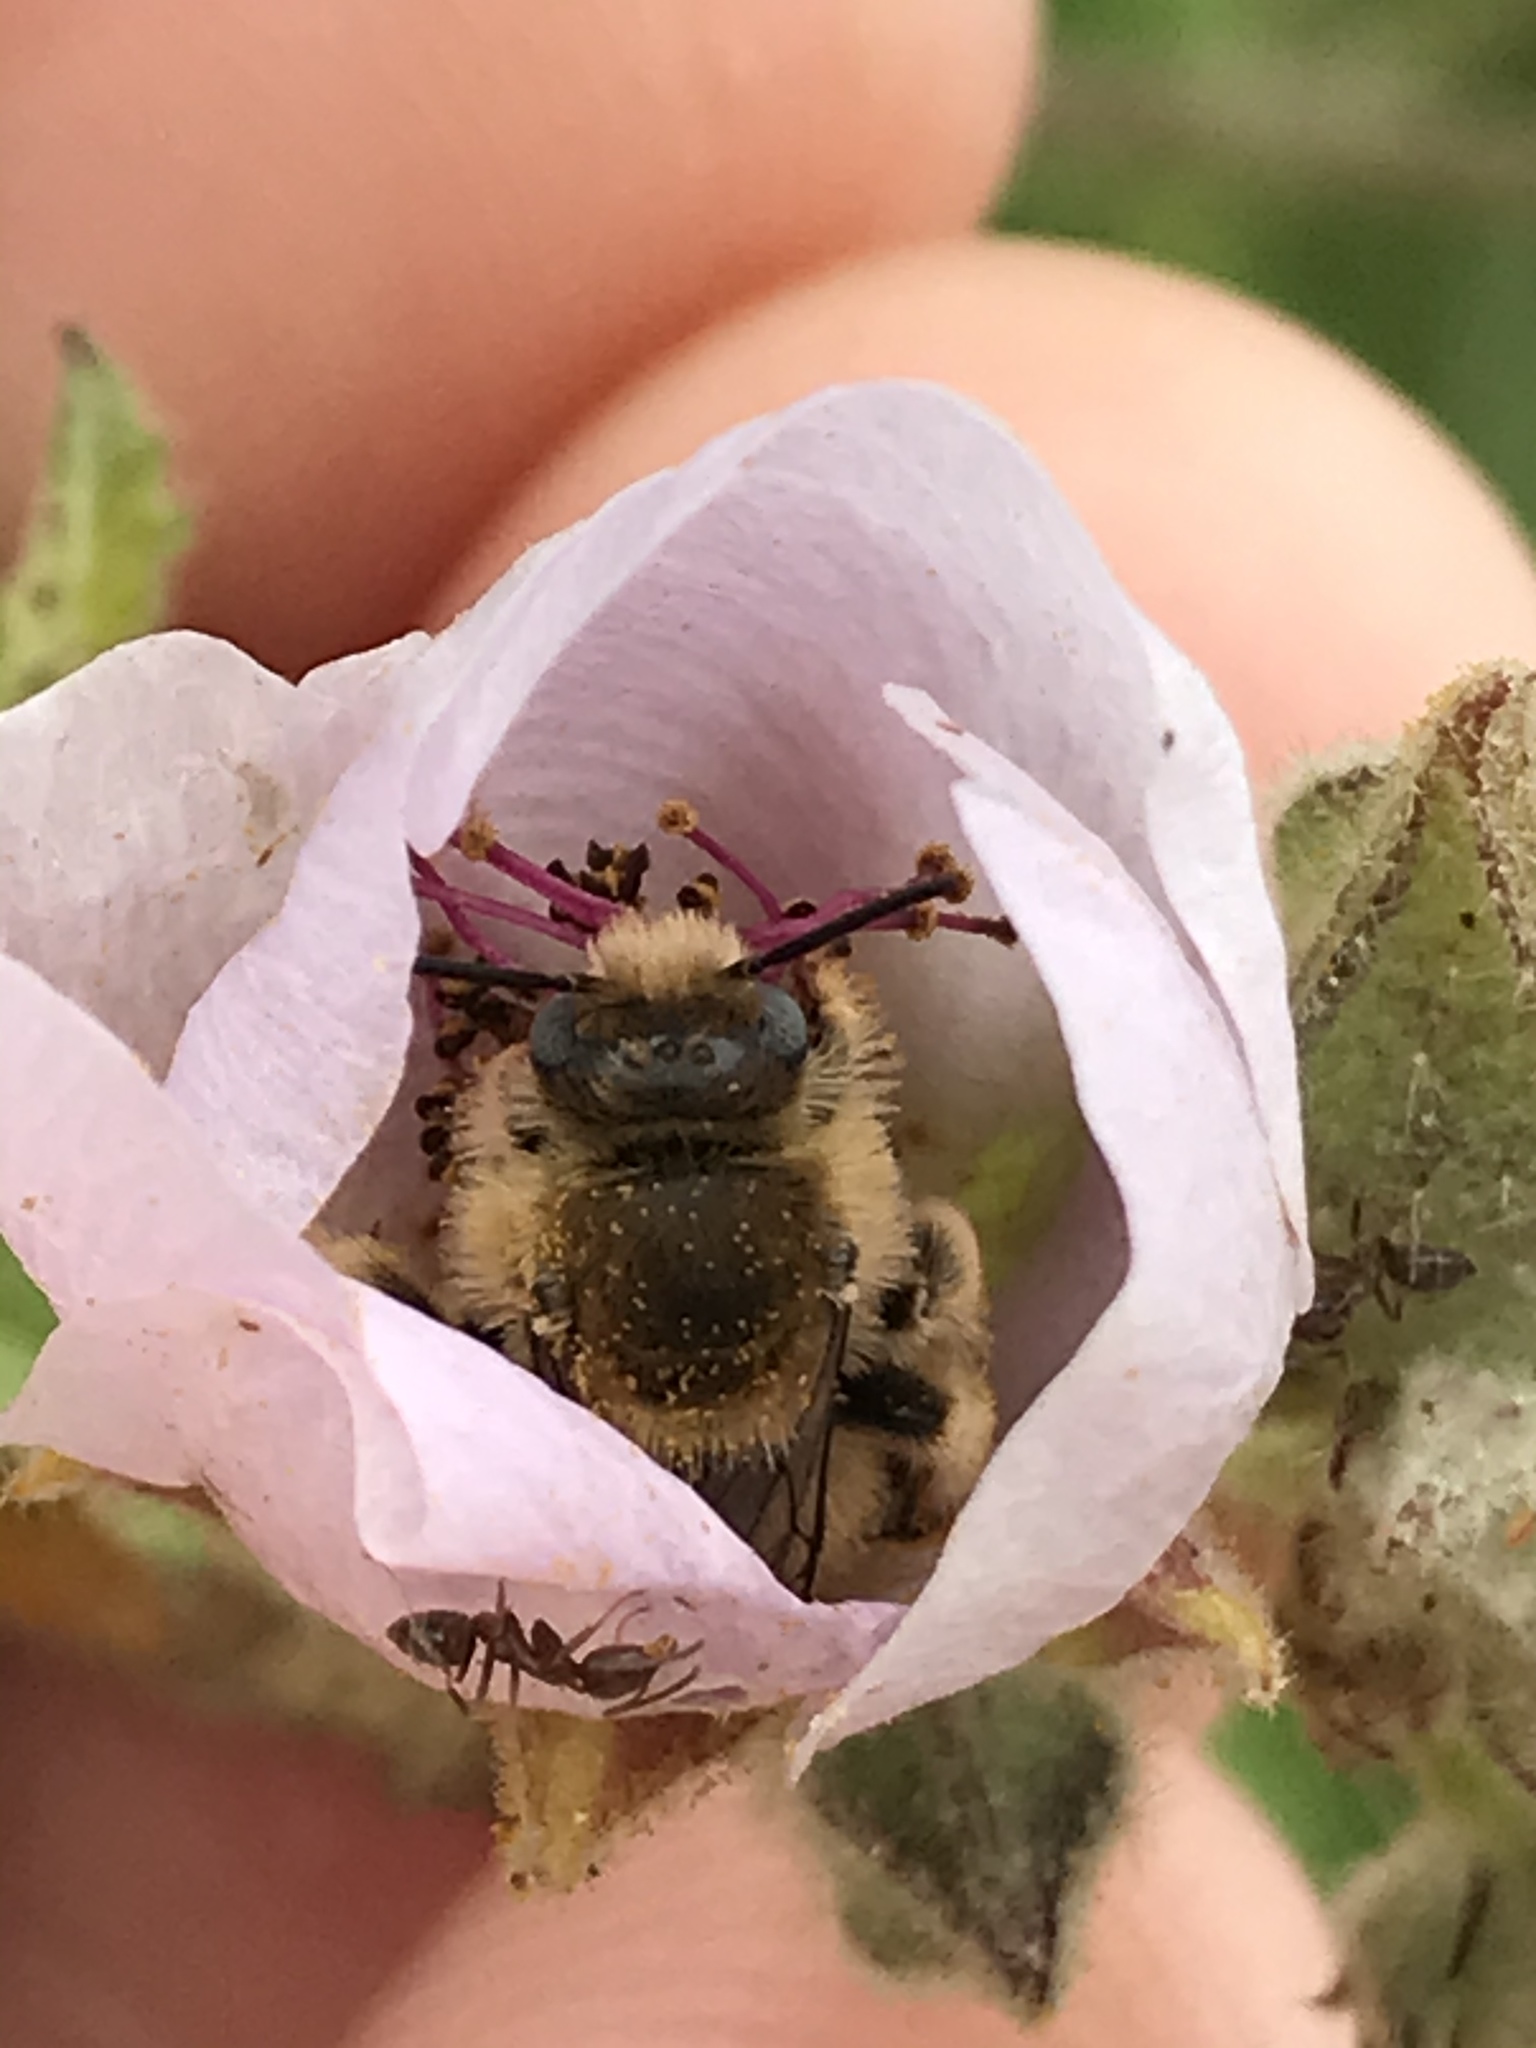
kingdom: Animalia
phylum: Arthropoda
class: Insecta
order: Hymenoptera
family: Formicidae
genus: Linepithema
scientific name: Linepithema humile
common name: Argentine ant
